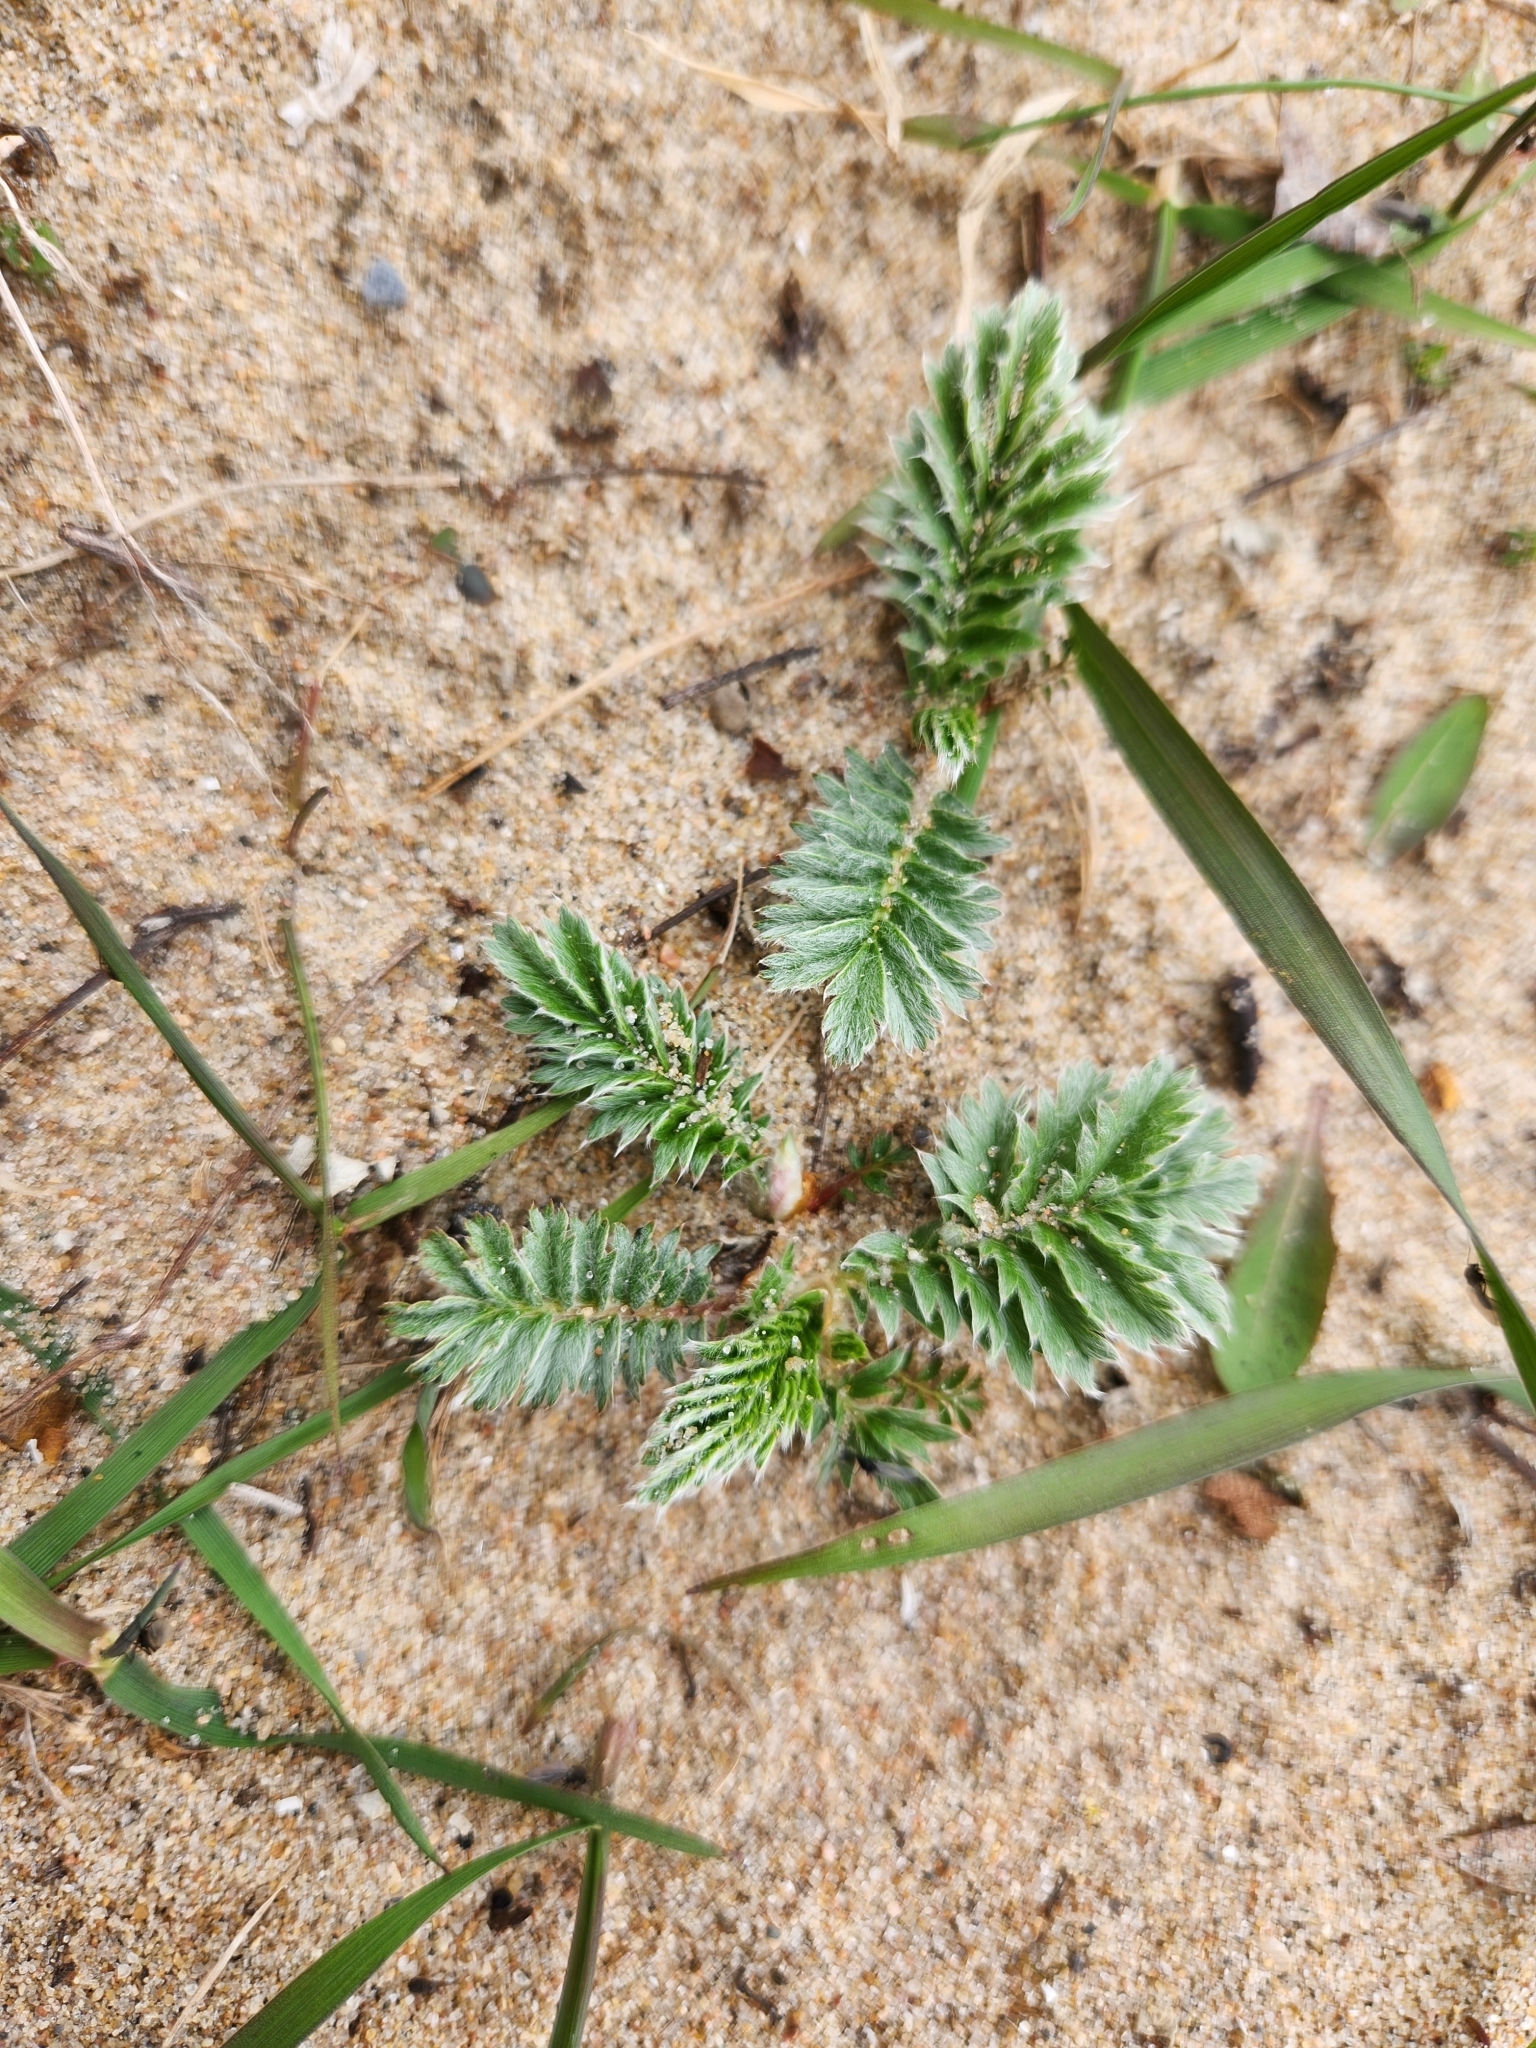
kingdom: Plantae
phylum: Tracheophyta
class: Magnoliopsida
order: Rosales
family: Rosaceae
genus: Argentina
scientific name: Argentina anserina
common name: Common silverweed
